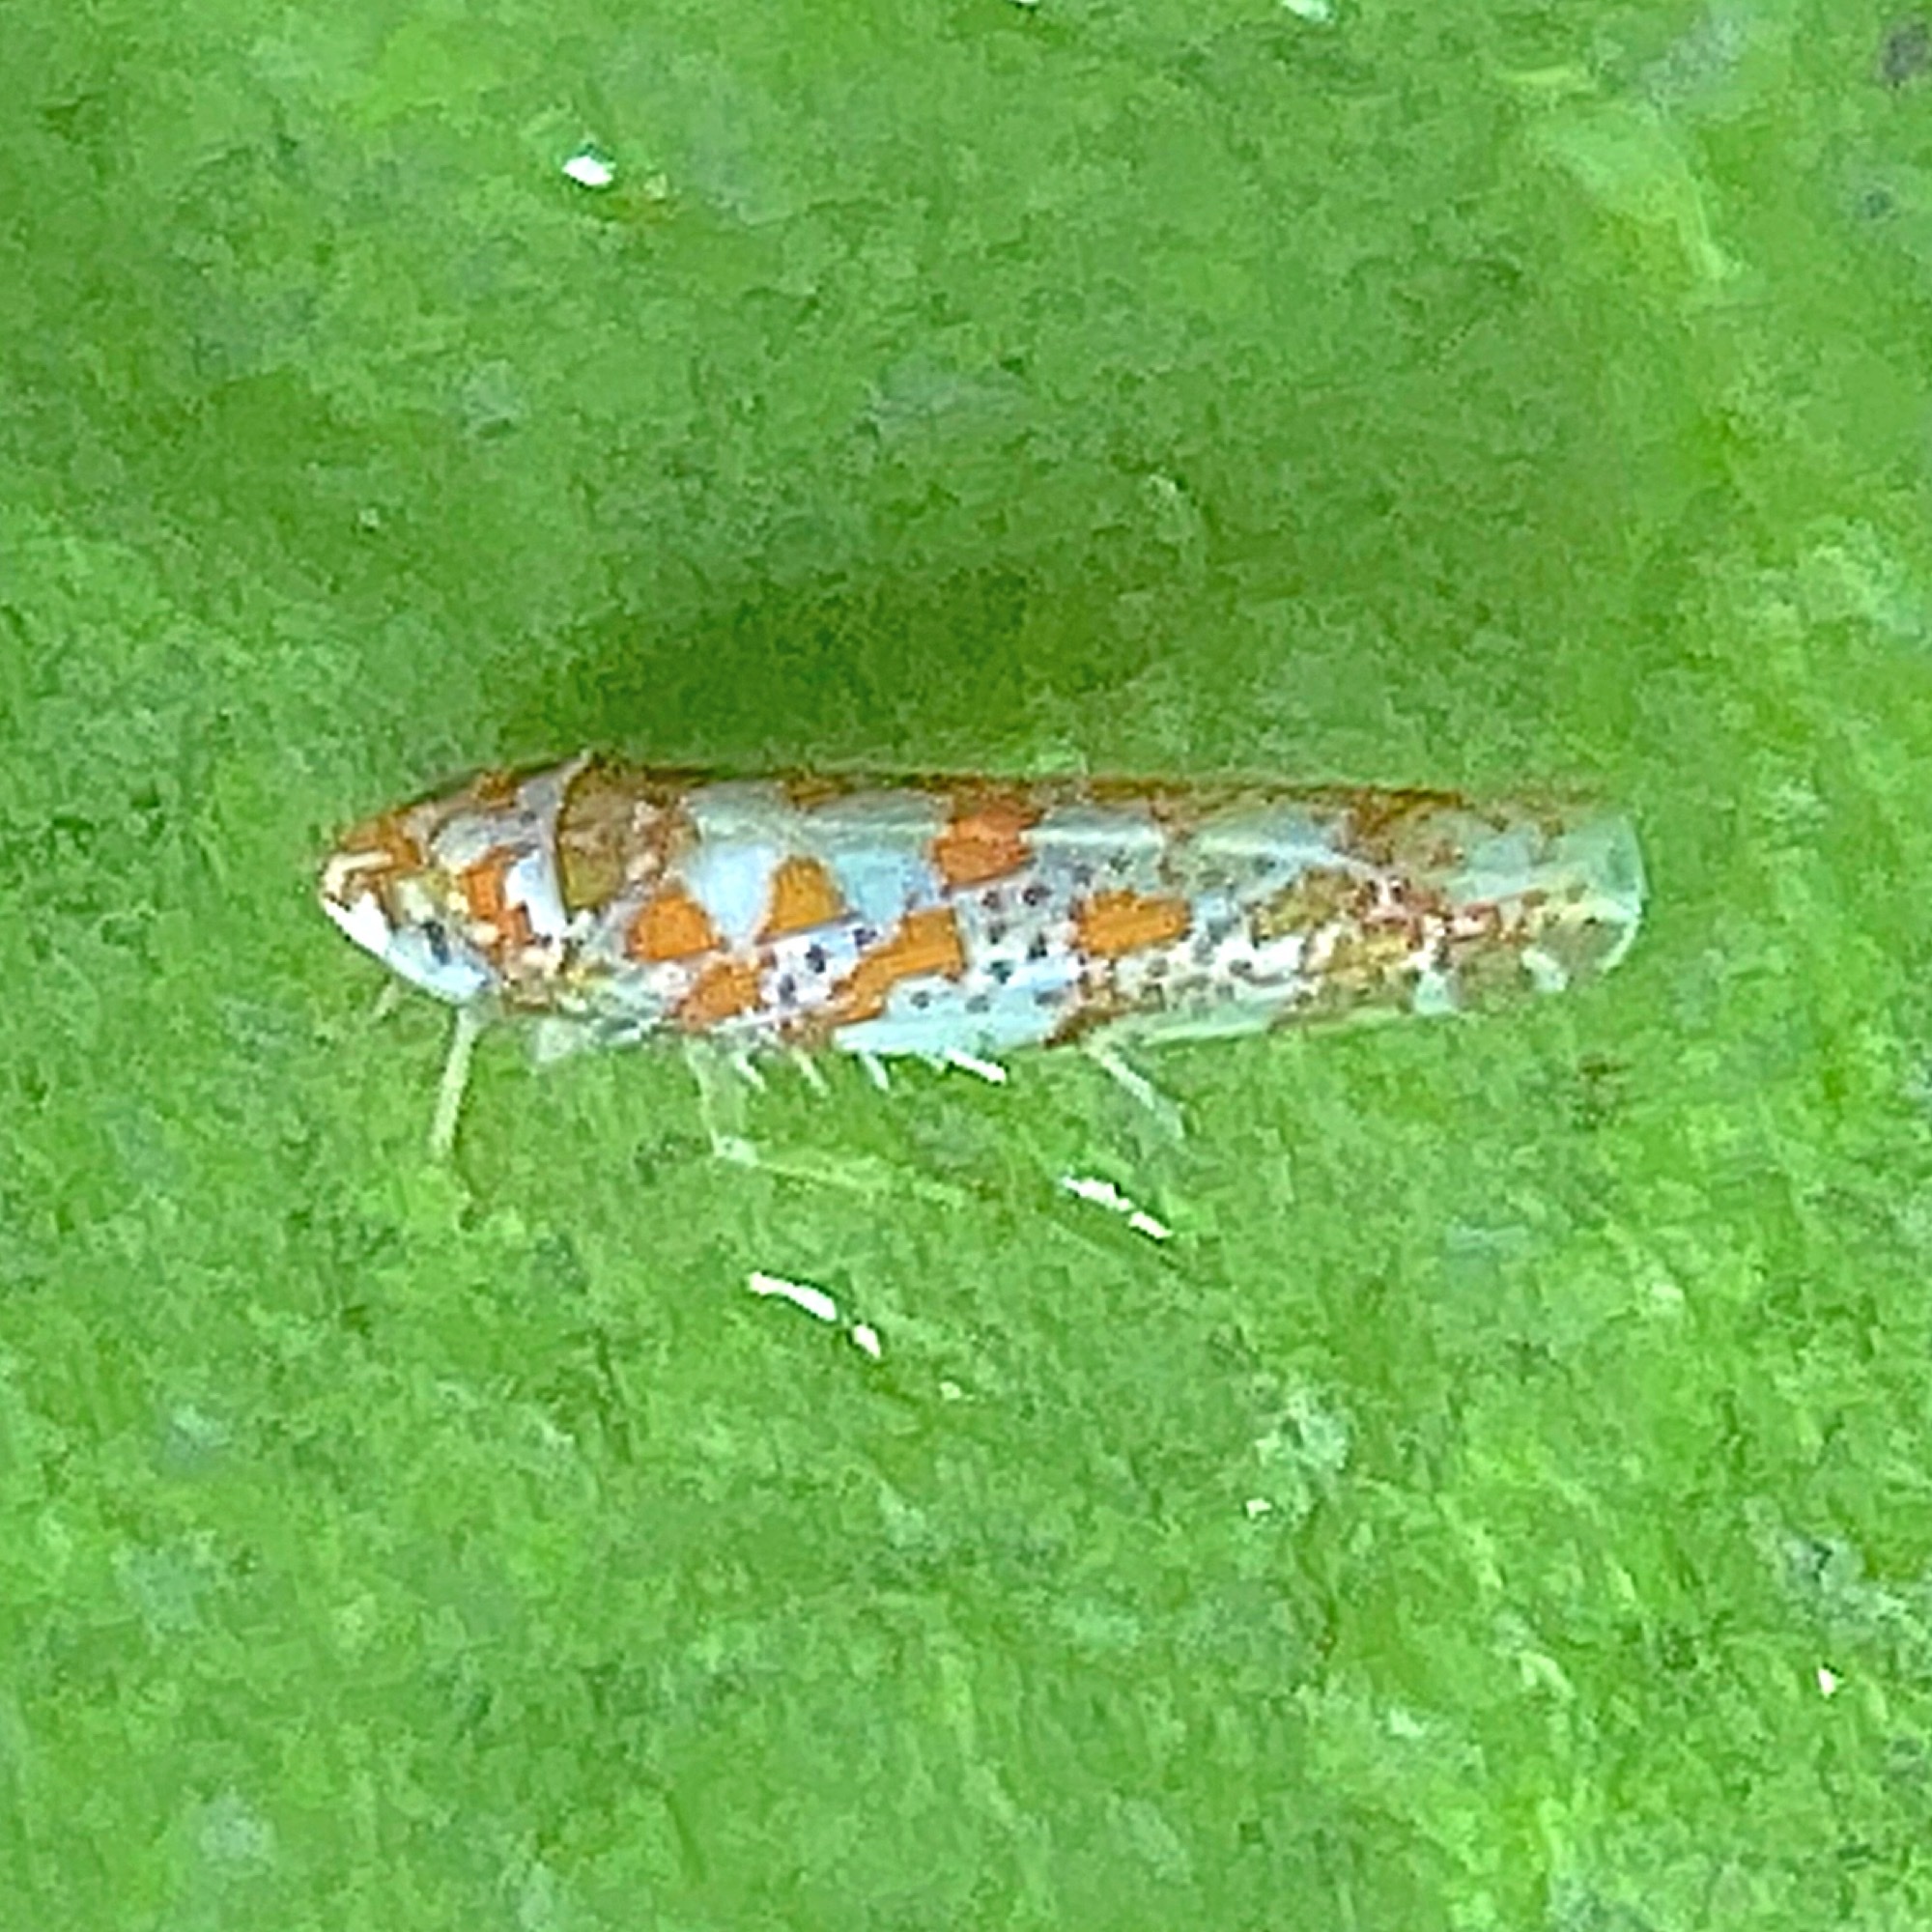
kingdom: Animalia
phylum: Arthropoda
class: Insecta
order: Hemiptera
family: Cicadellidae
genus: Dikrella
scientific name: Dikrella maculata
